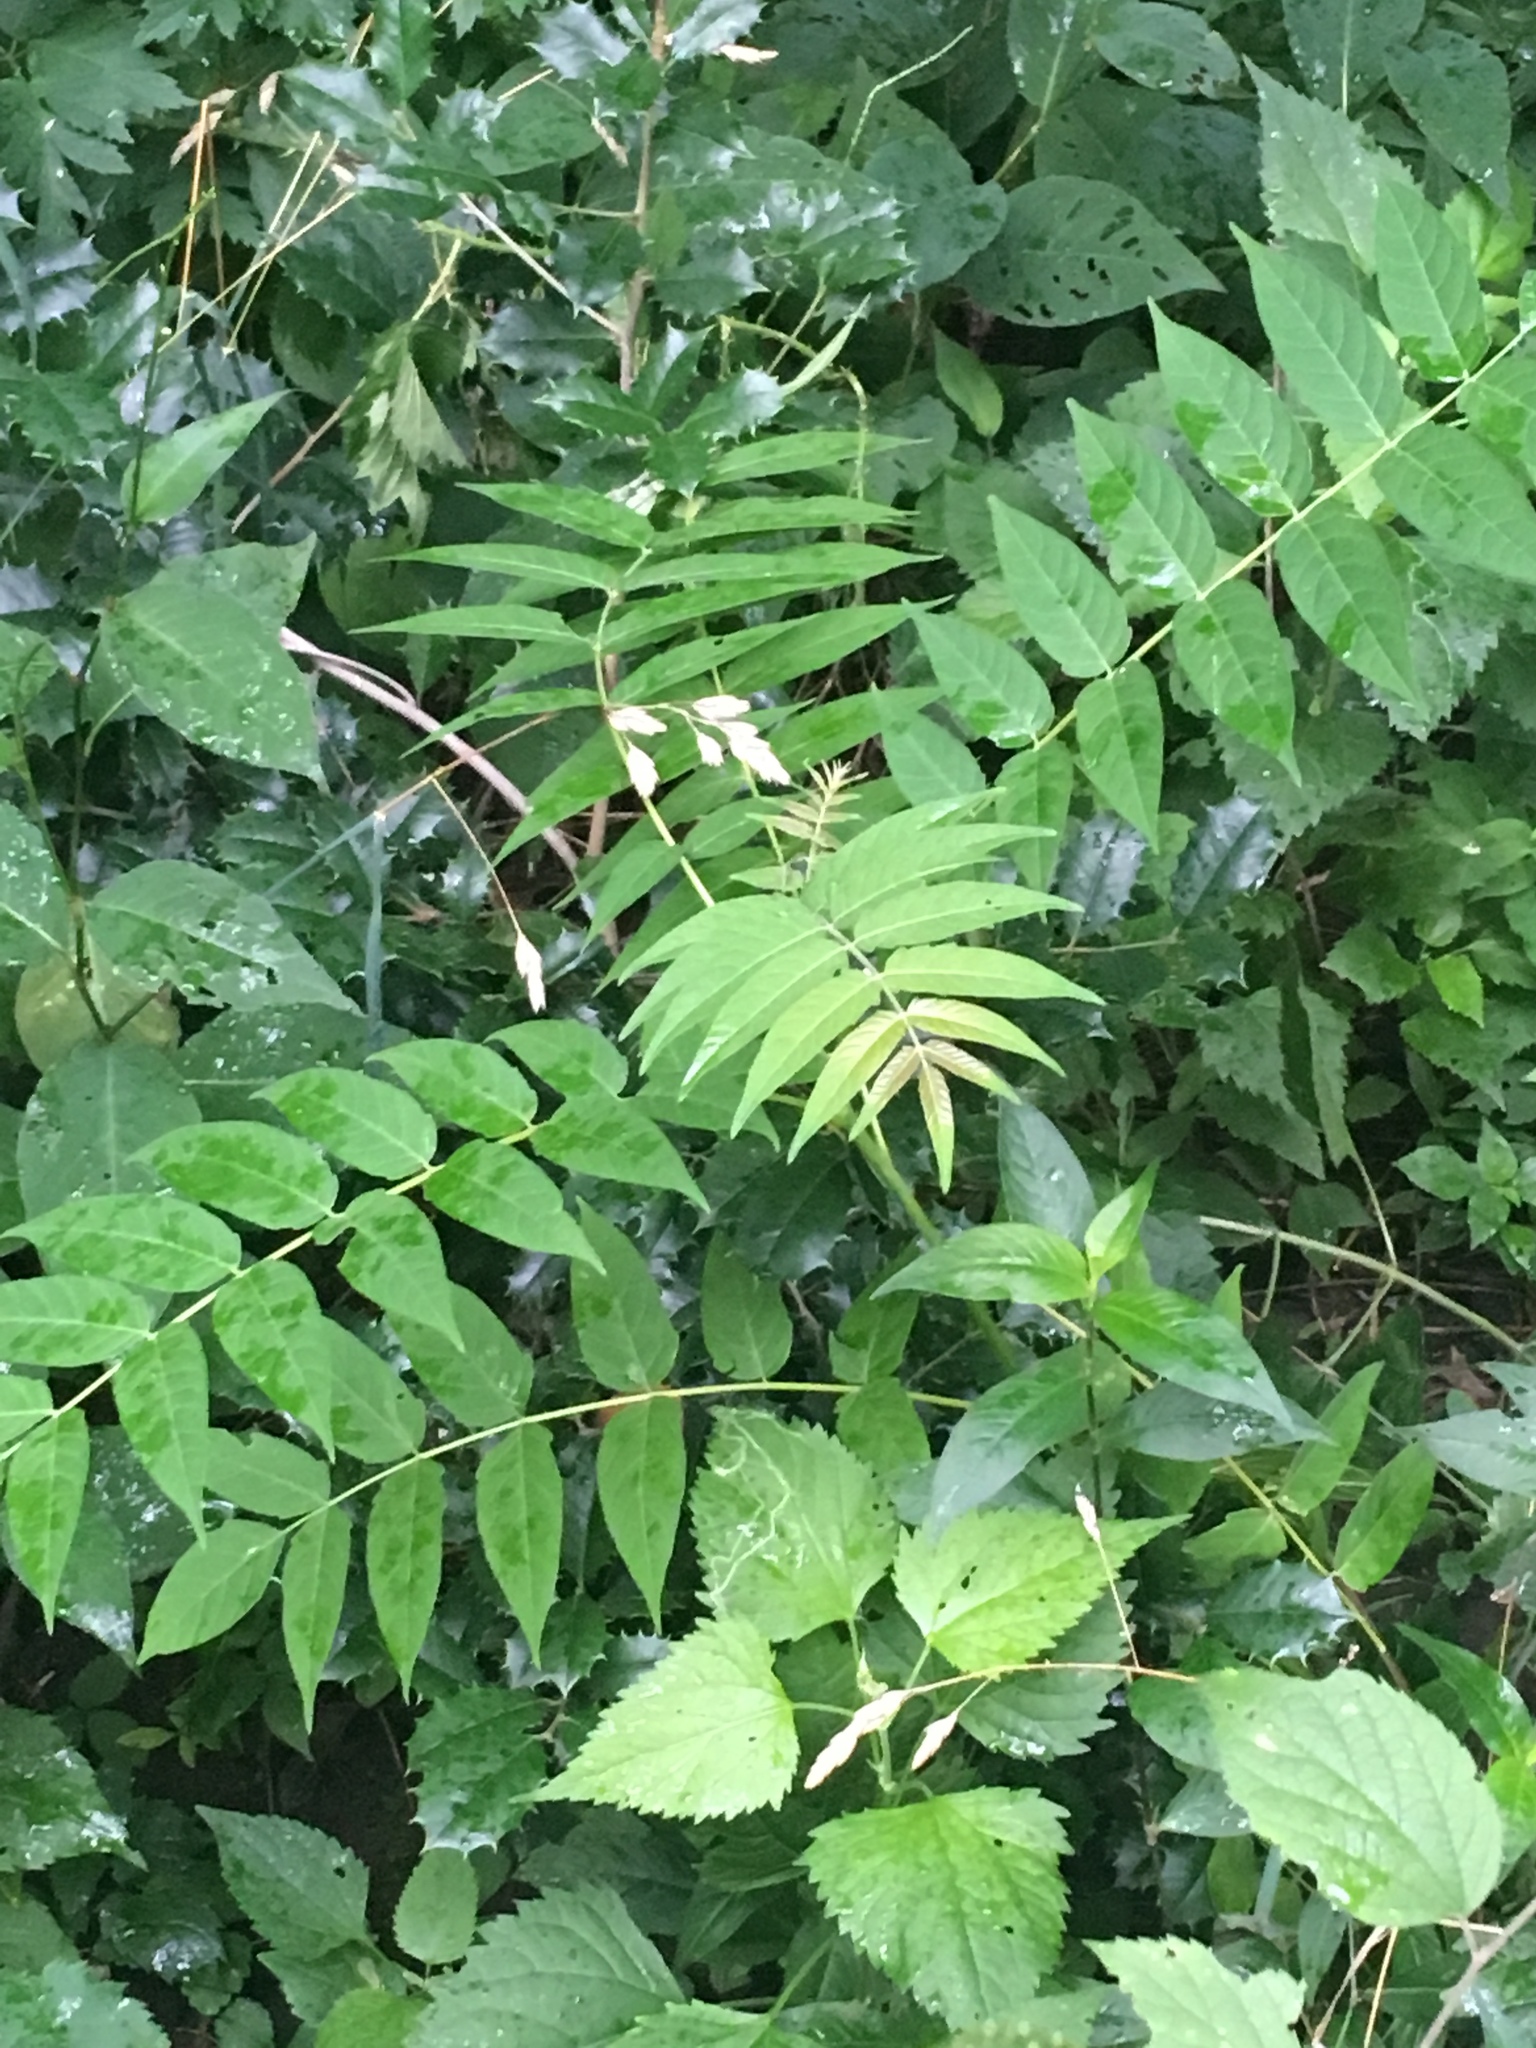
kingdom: Plantae
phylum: Tracheophyta
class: Magnoliopsida
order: Sapindales
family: Simaroubaceae
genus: Ailanthus
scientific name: Ailanthus altissima
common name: Tree-of-heaven
